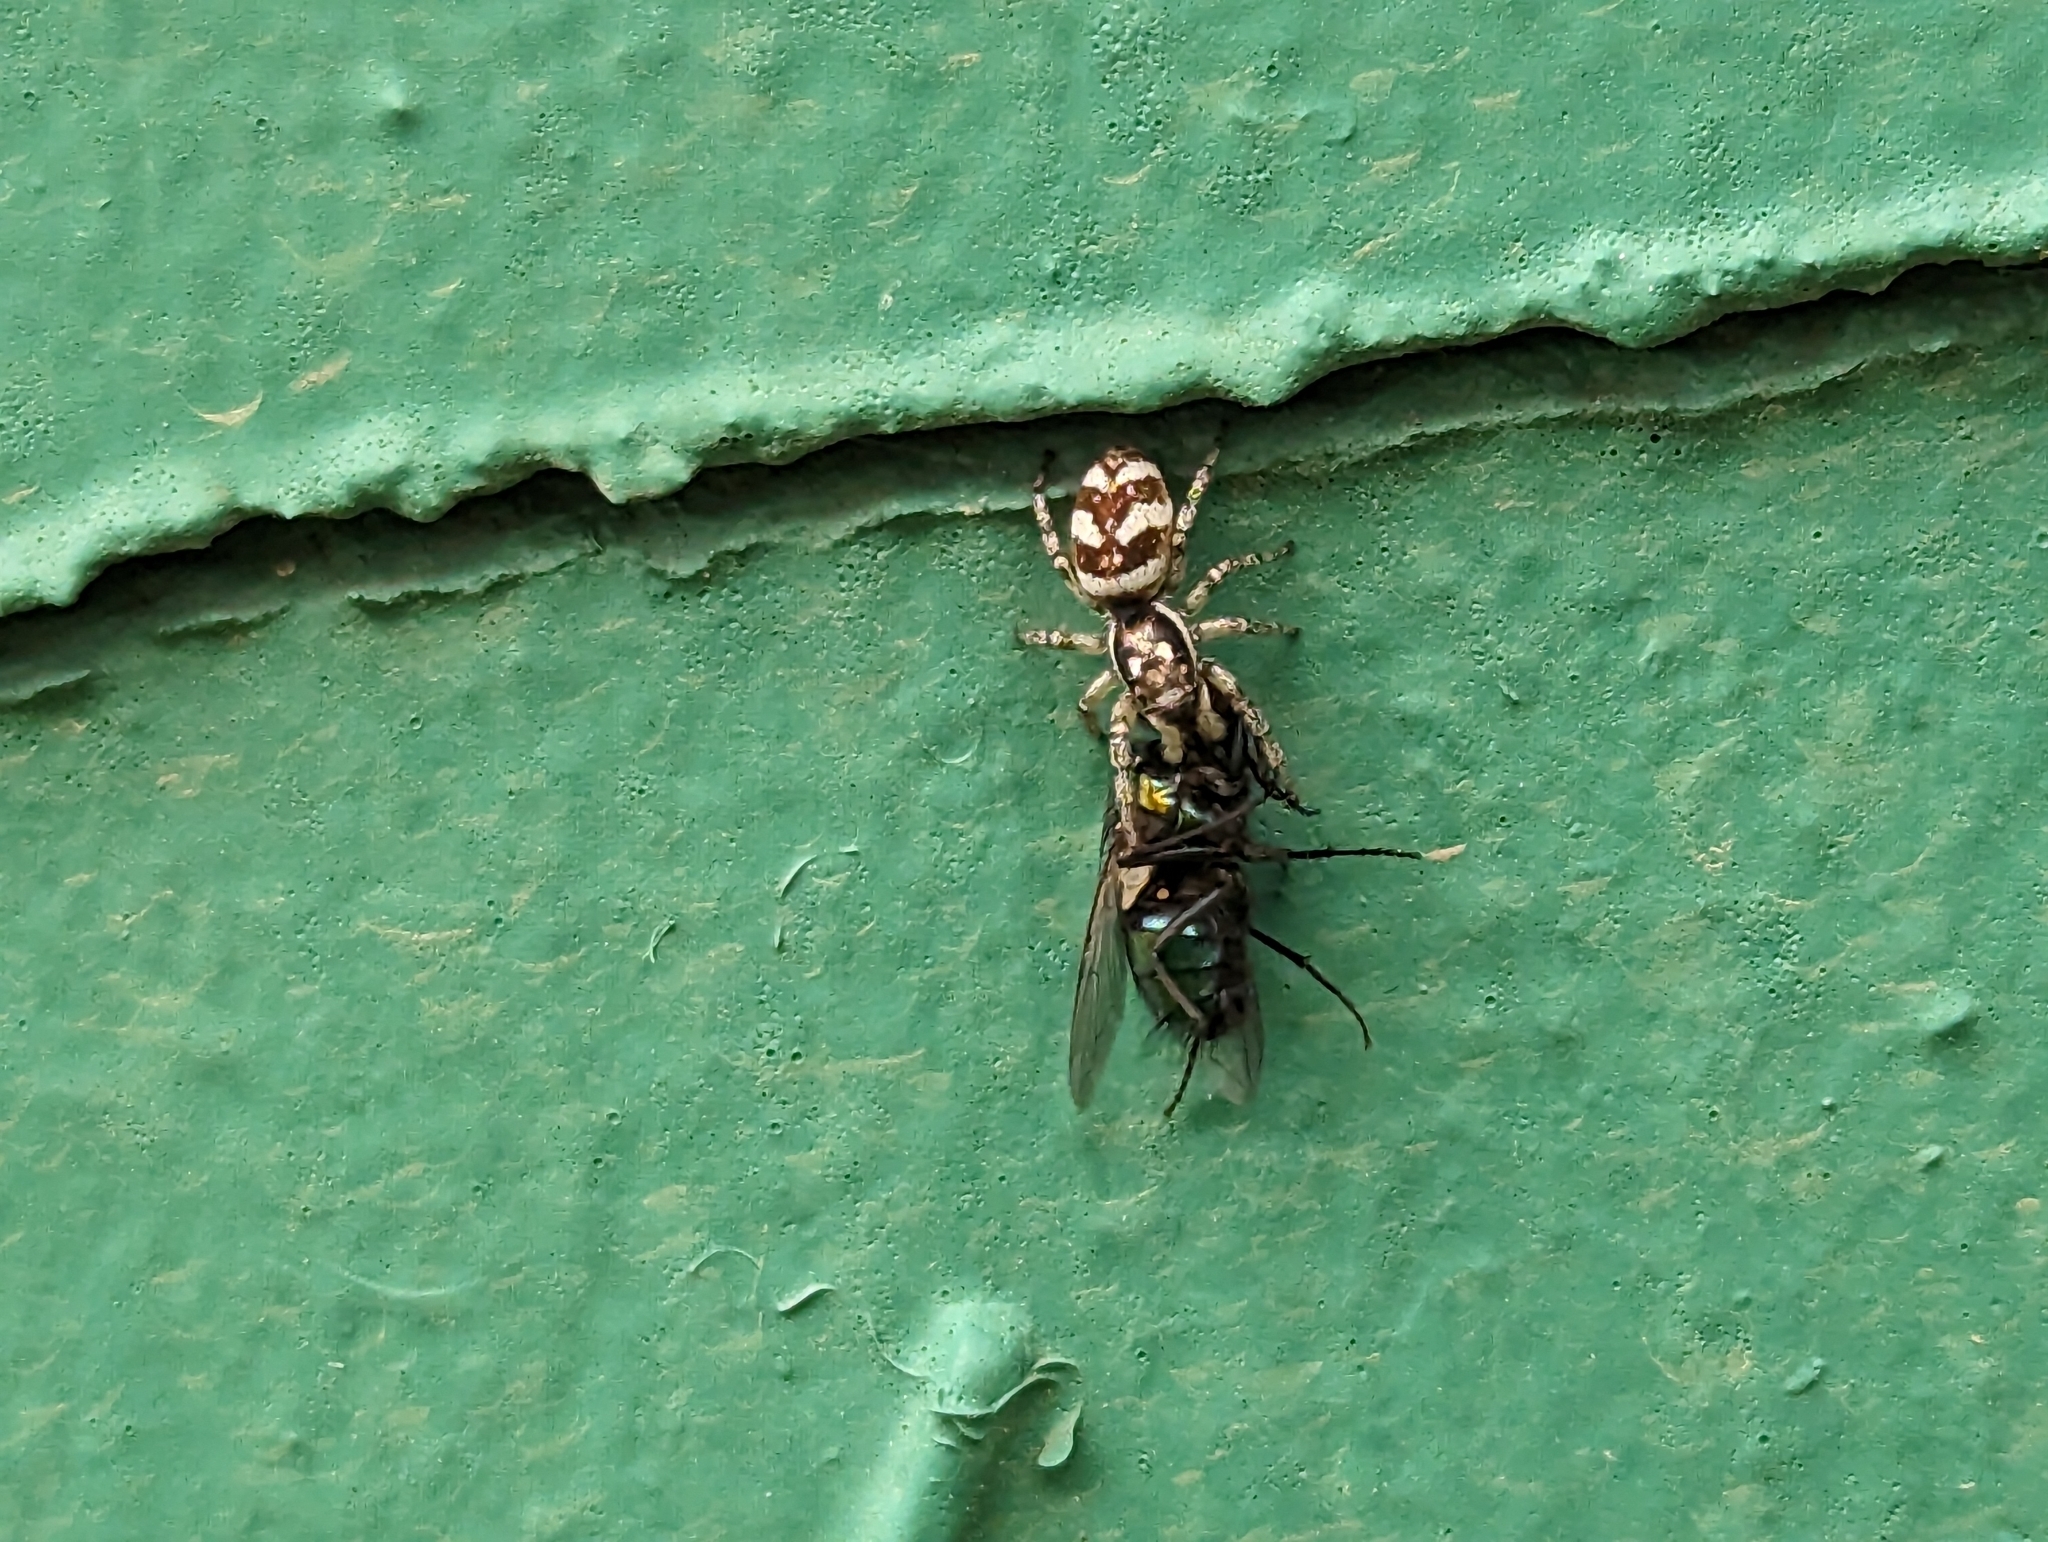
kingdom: Animalia
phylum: Arthropoda
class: Arachnida
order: Araneae
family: Salticidae
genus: Salticus
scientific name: Salticus scenicus
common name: Zebra jumper
